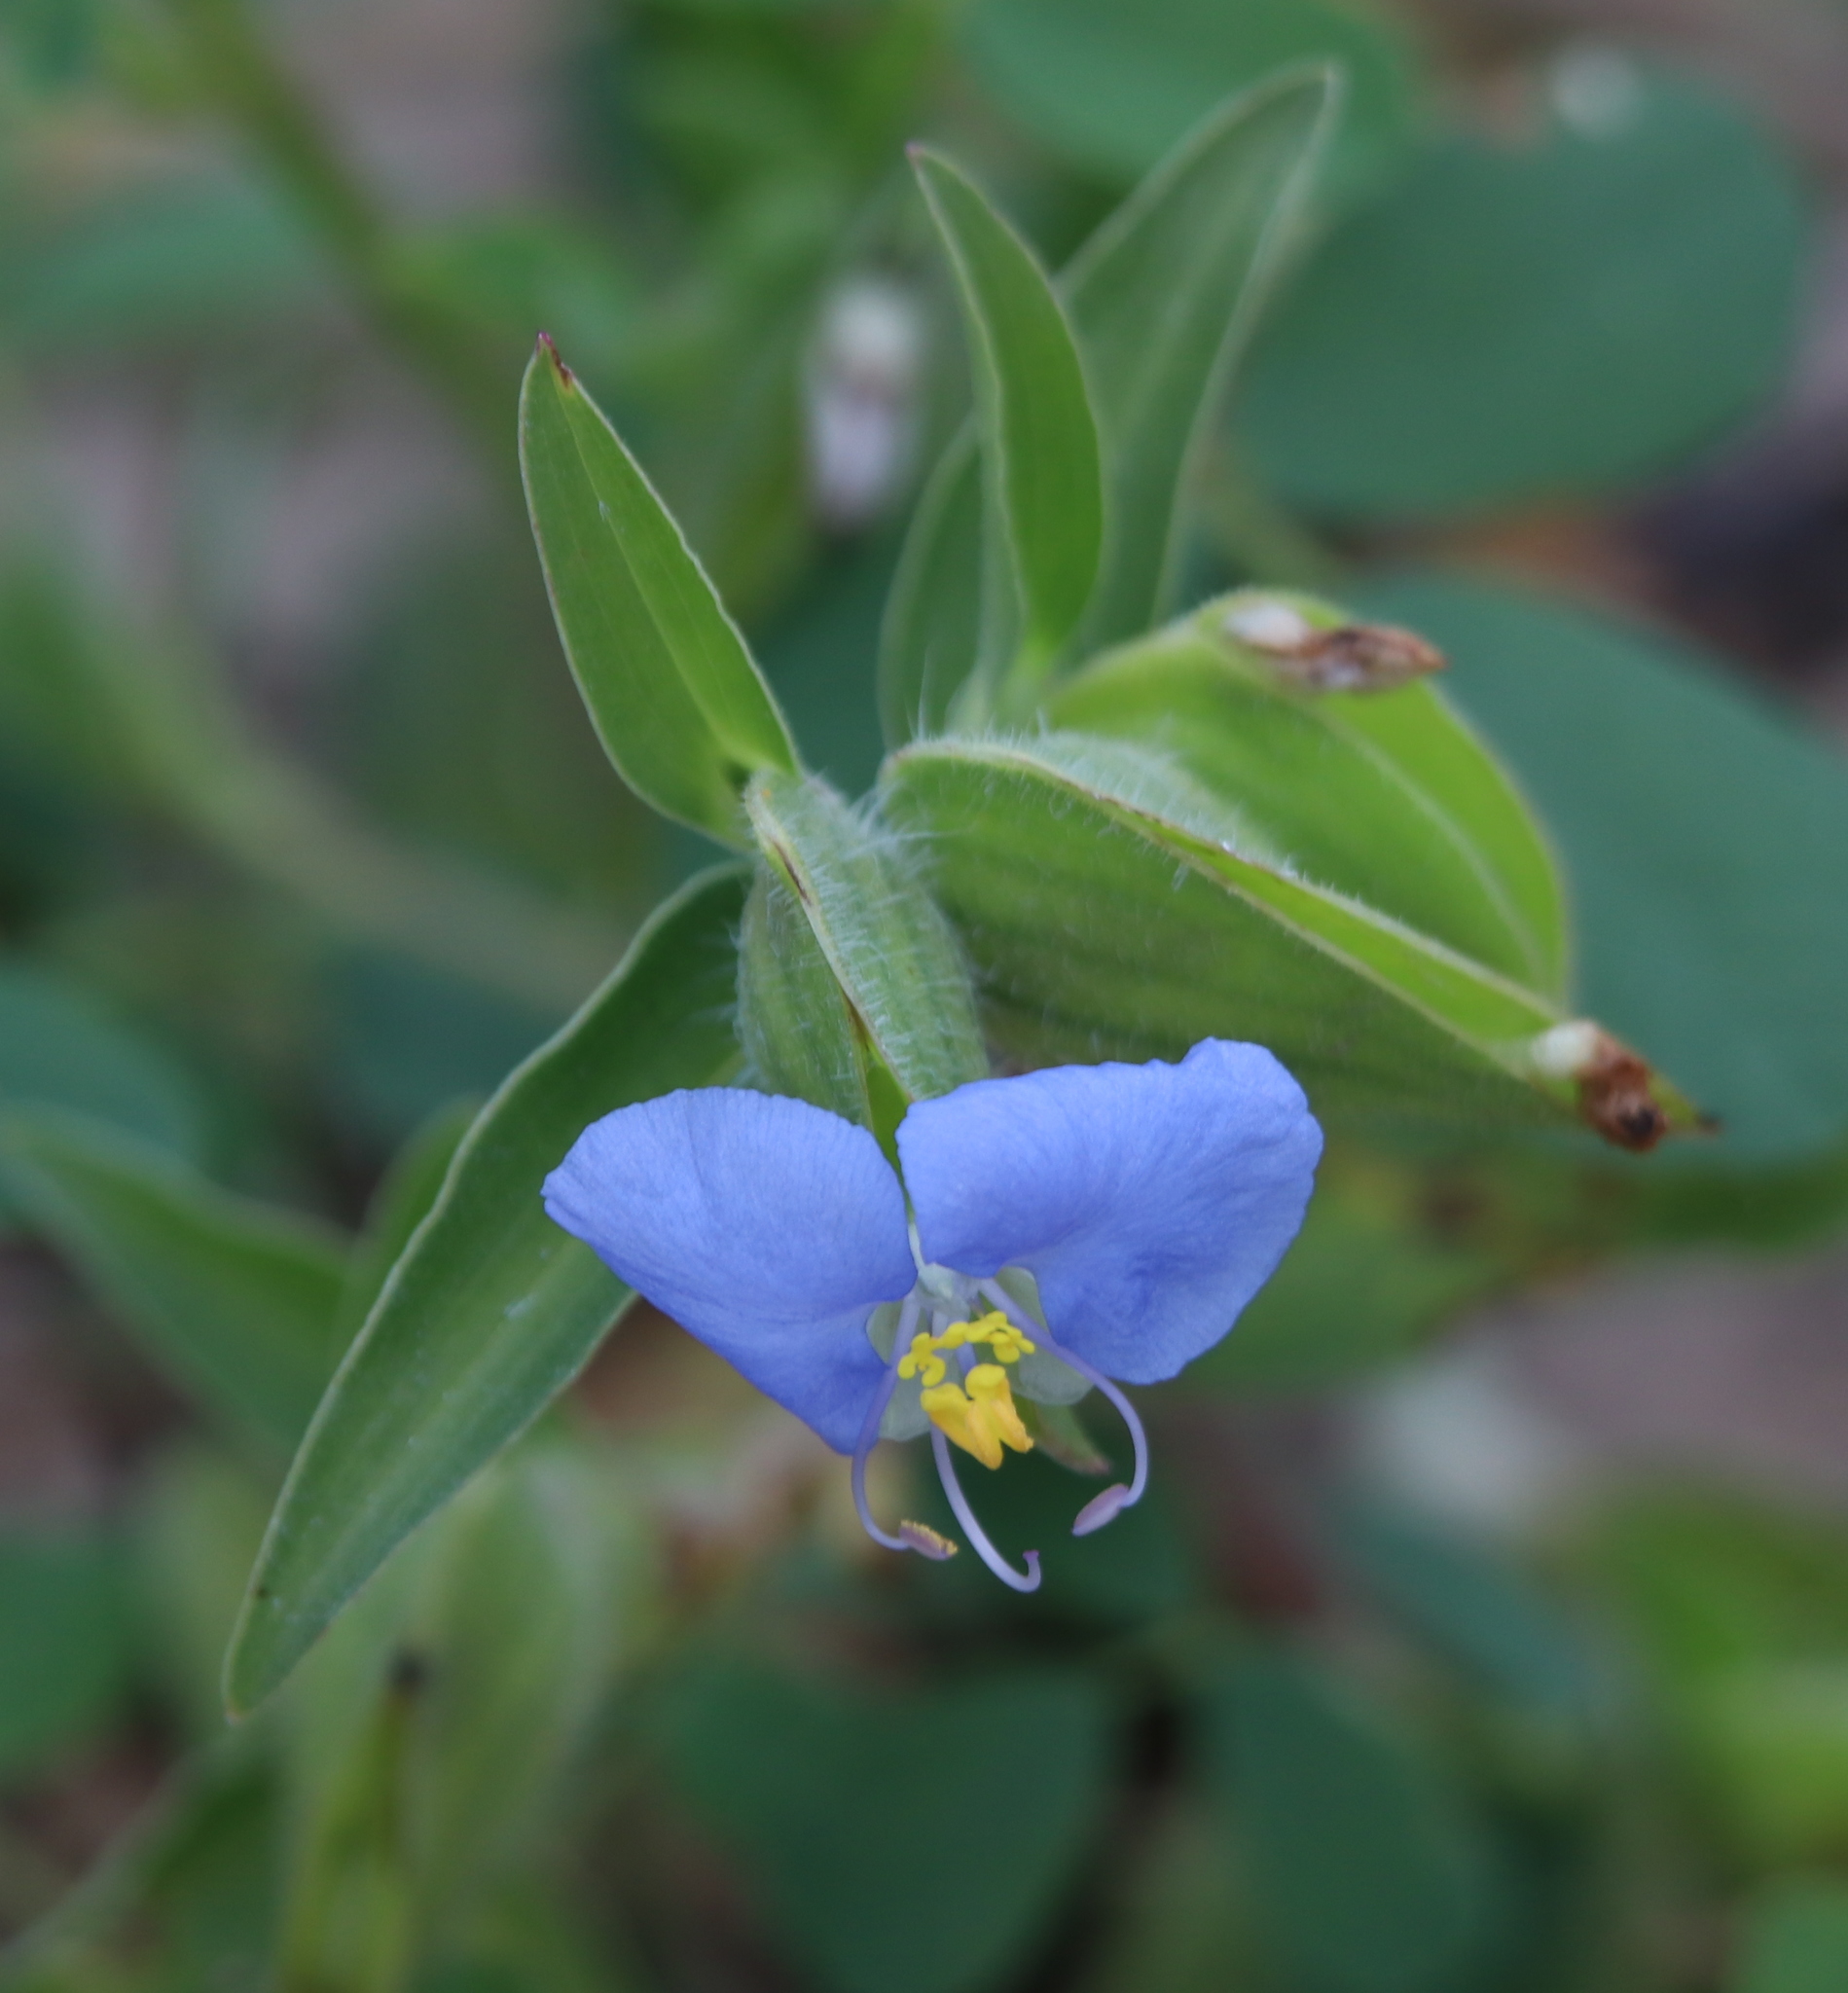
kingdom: Plantae
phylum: Tracheophyta
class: Liliopsida
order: Commelinales
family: Commelinaceae
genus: Commelina
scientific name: Commelina erecta
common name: Blousel blommetjie
